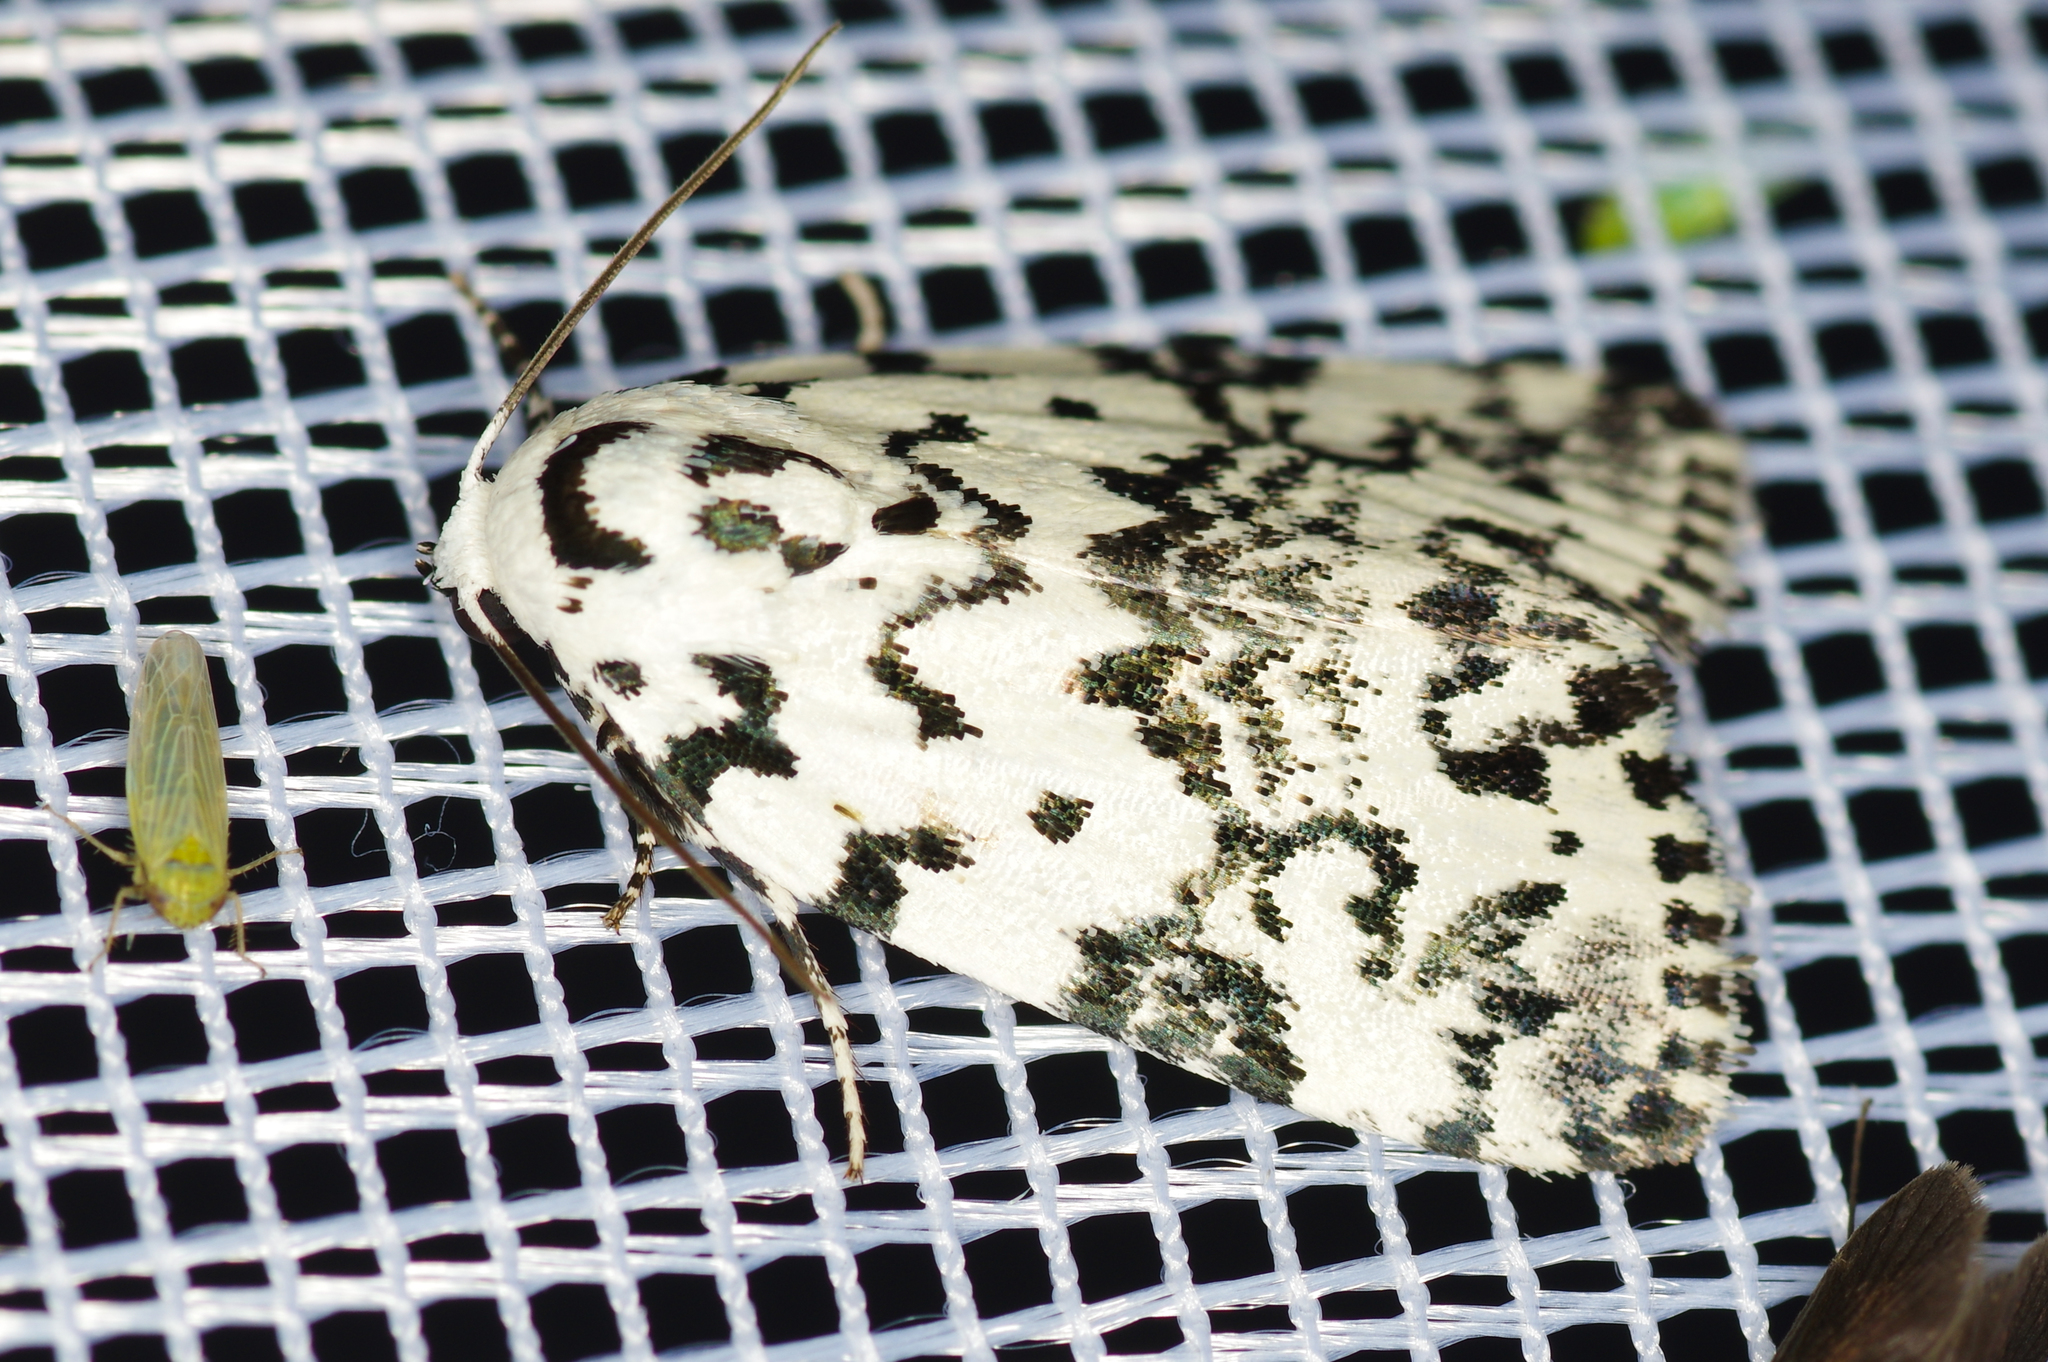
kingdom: Animalia
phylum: Arthropoda
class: Insecta
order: Lepidoptera
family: Noctuidae
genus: Polygrammate
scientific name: Polygrammate hebraeicum
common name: Hebrew moth
